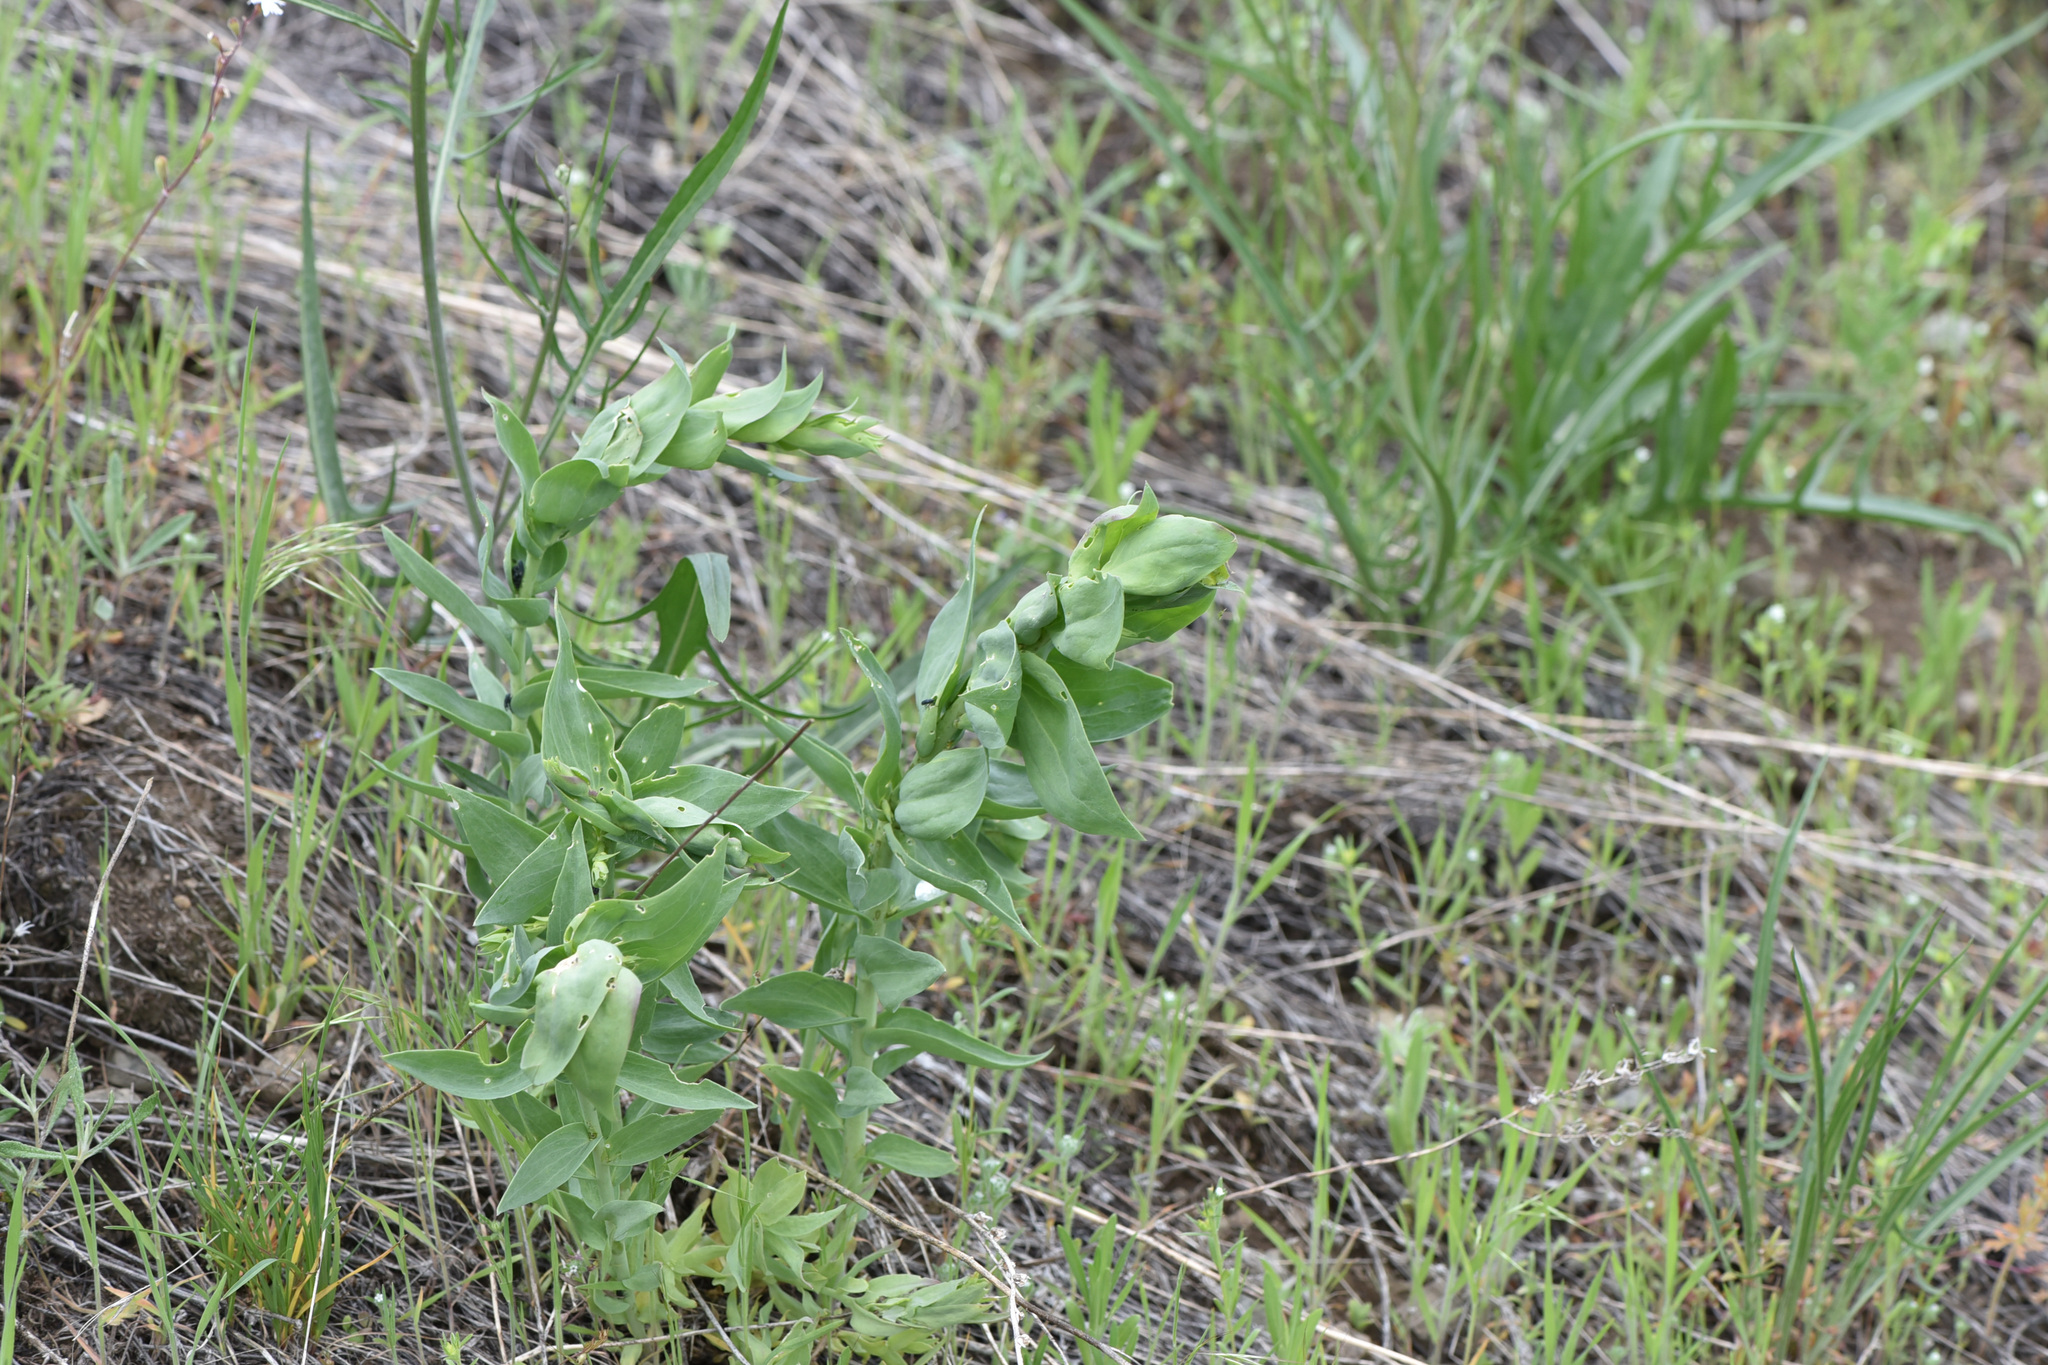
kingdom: Plantae
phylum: Tracheophyta
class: Magnoliopsida
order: Lamiales
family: Plantaginaceae
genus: Linaria
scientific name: Linaria dalmatica
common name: Dalmatian toadflax
